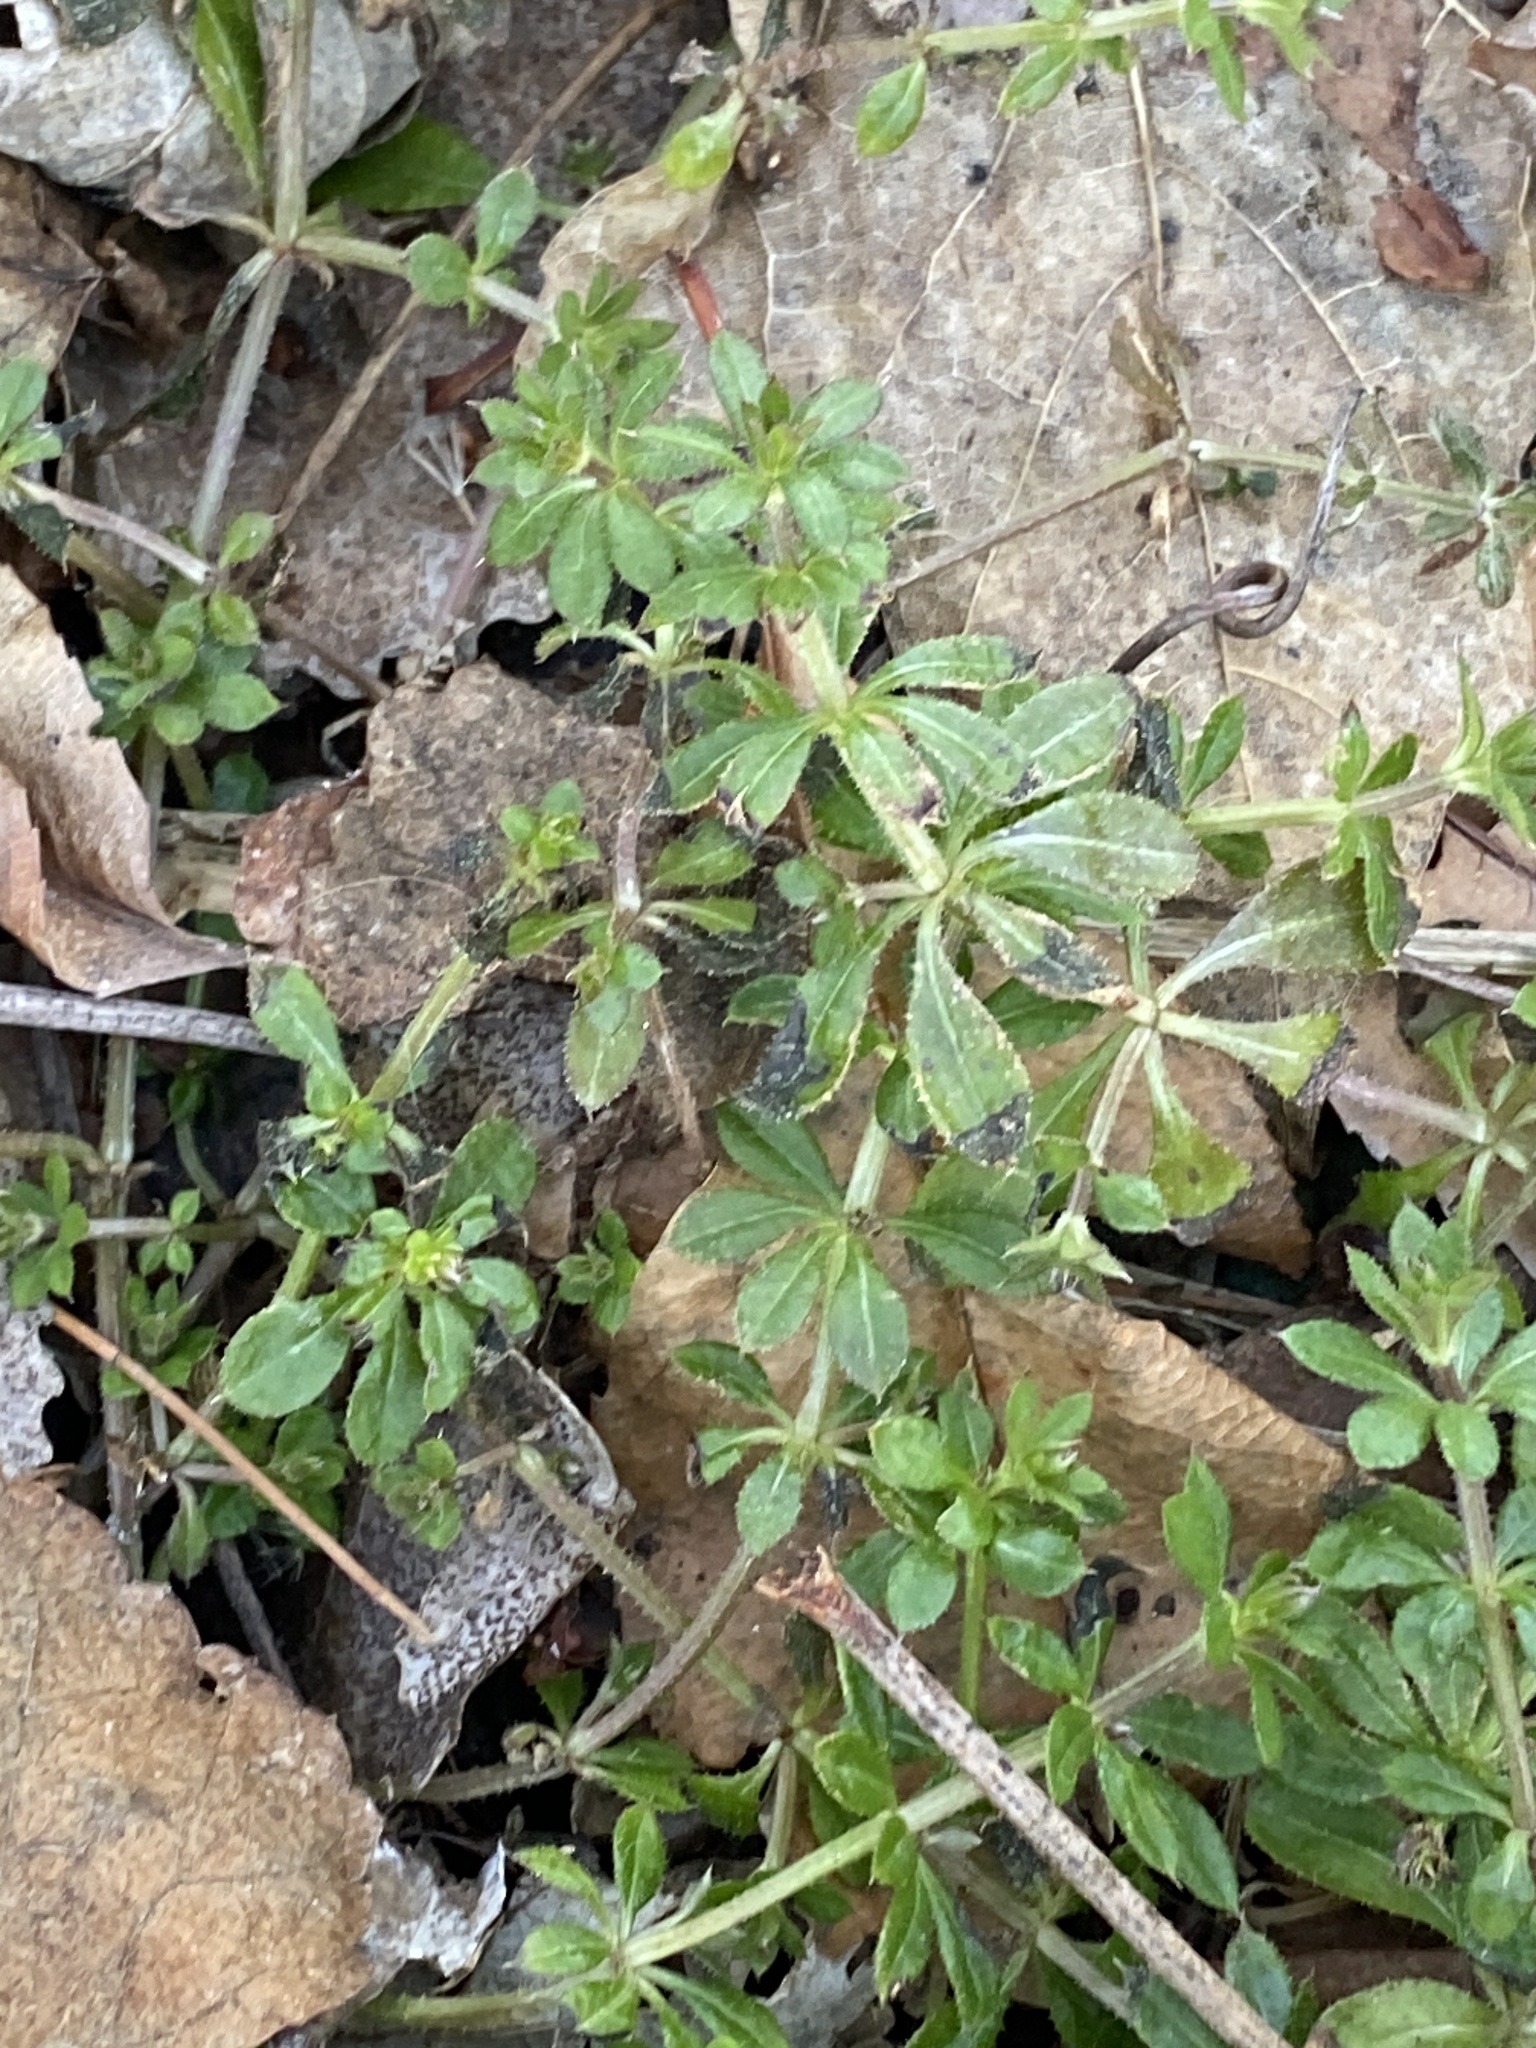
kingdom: Plantae
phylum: Tracheophyta
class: Magnoliopsida
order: Gentianales
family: Rubiaceae
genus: Galium
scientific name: Galium aparine
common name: Cleavers
